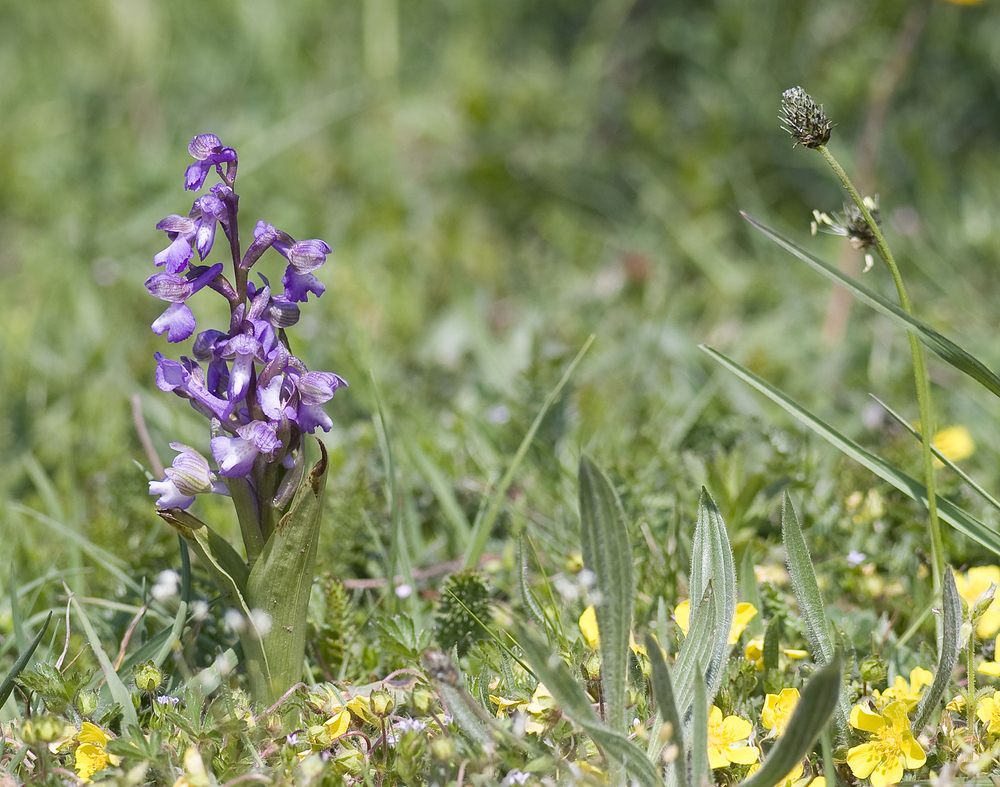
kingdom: Plantae
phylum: Tracheophyta
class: Liliopsida
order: Asparagales
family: Orchidaceae
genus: Anacamptis
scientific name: Anacamptis morio
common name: Green-winged orchid
